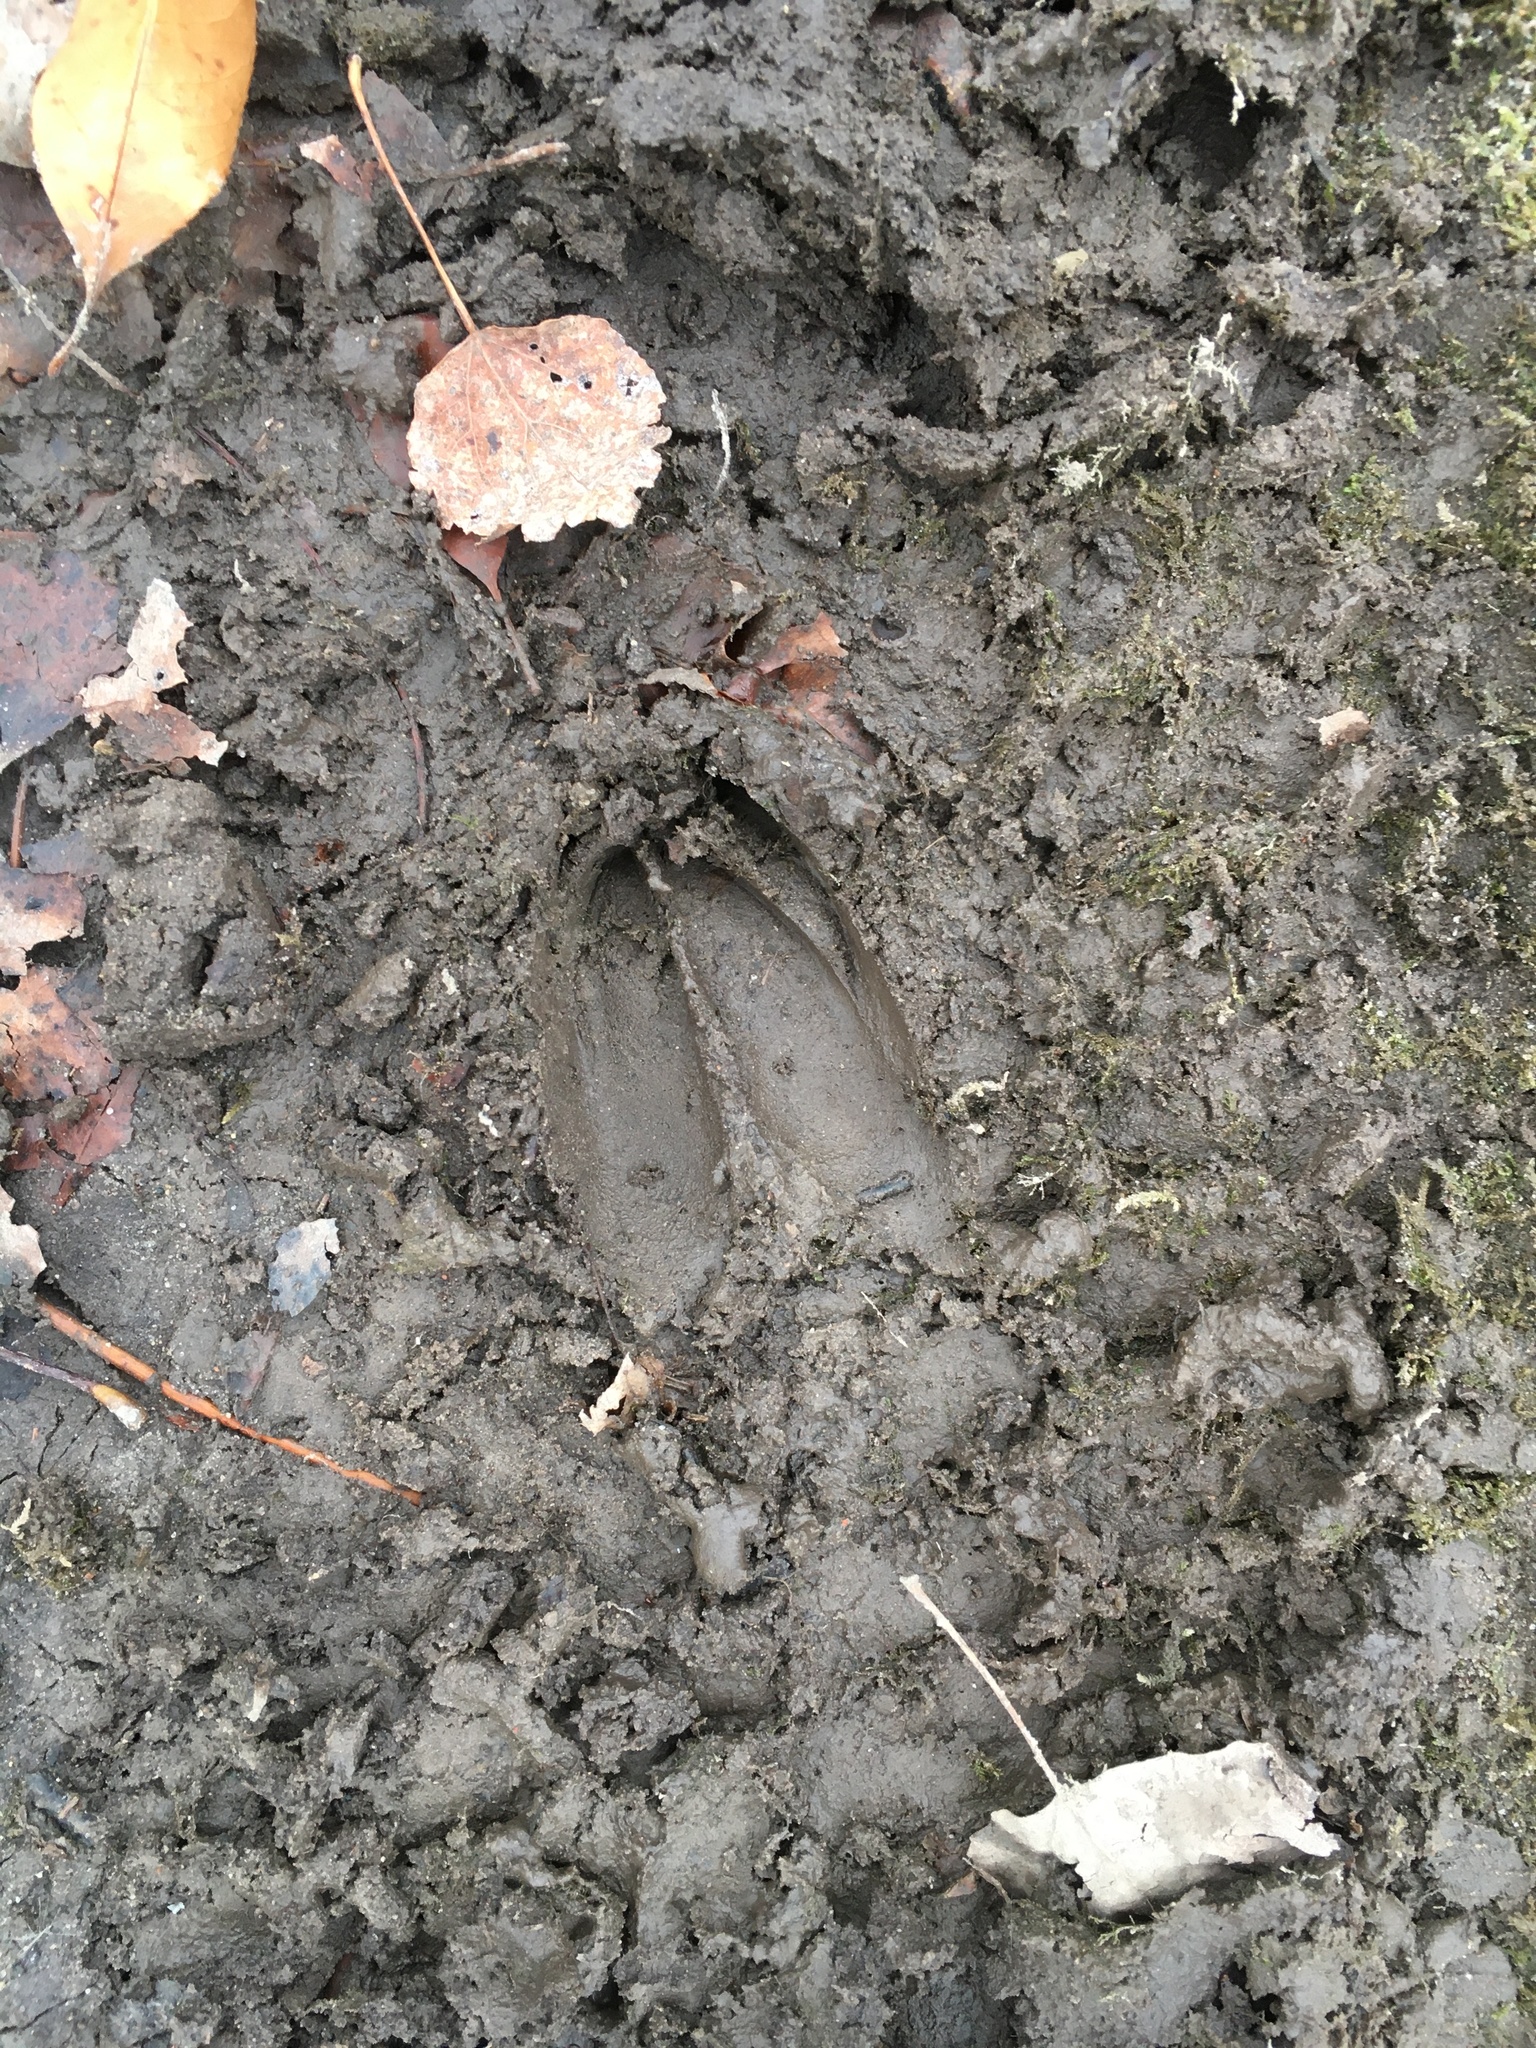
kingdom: Animalia
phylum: Chordata
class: Mammalia
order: Artiodactyla
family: Cervidae
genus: Odocoileus
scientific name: Odocoileus virginianus
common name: White-tailed deer
